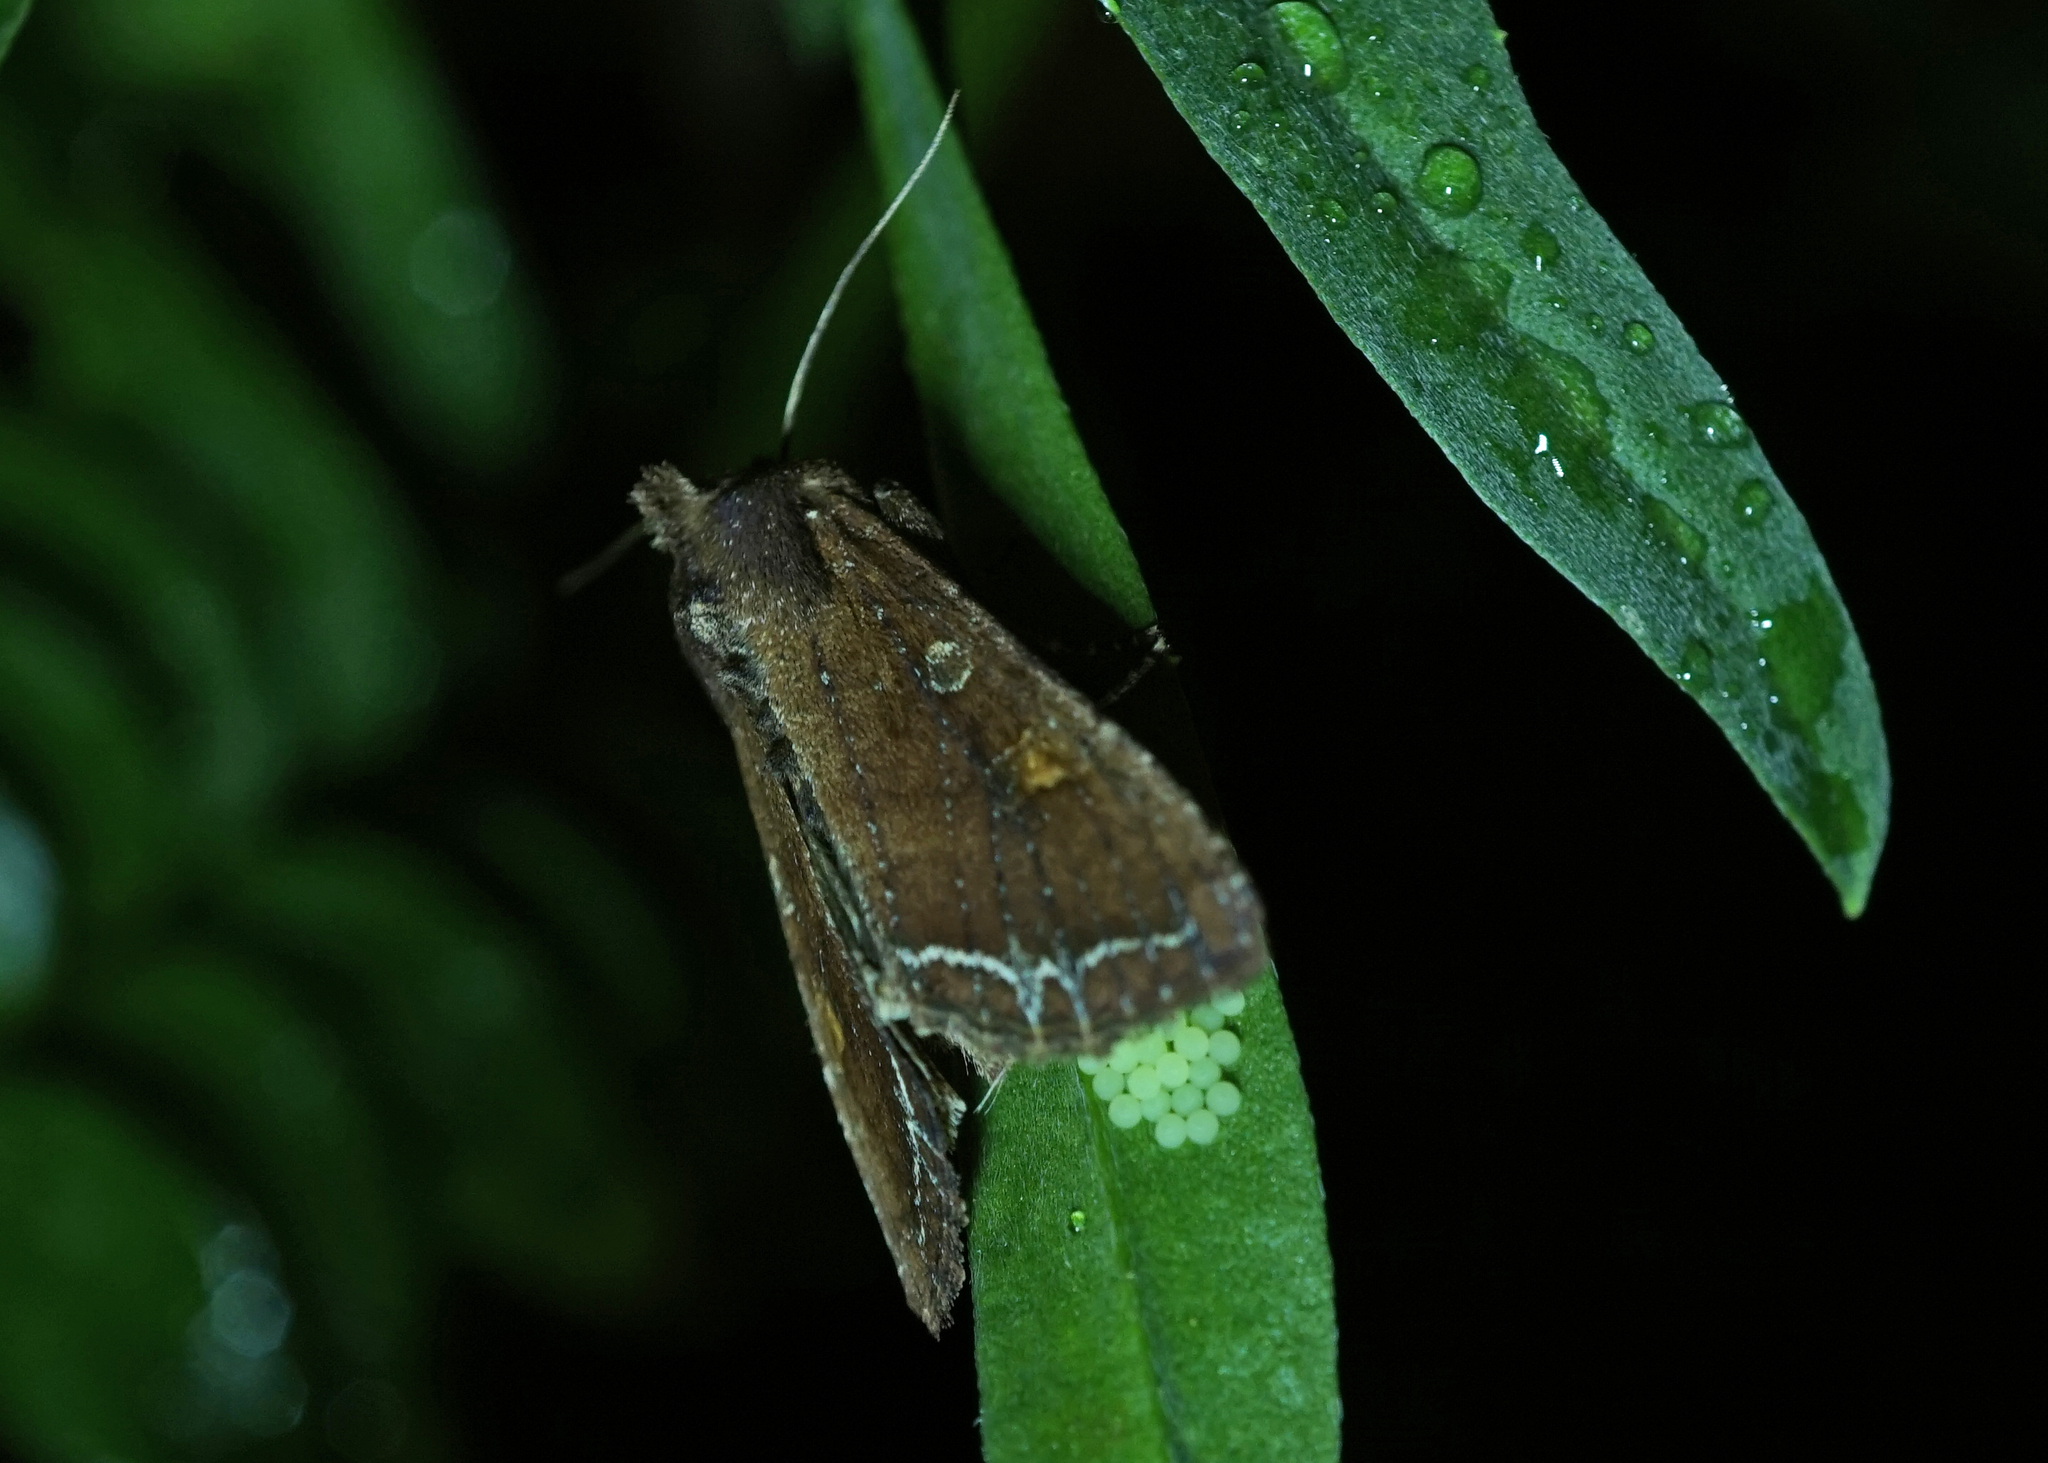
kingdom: Animalia
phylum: Arthropoda
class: Insecta
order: Lepidoptera
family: Noctuidae
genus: Lacanobia
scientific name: Lacanobia oleracea
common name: Bright-line brown-eye
